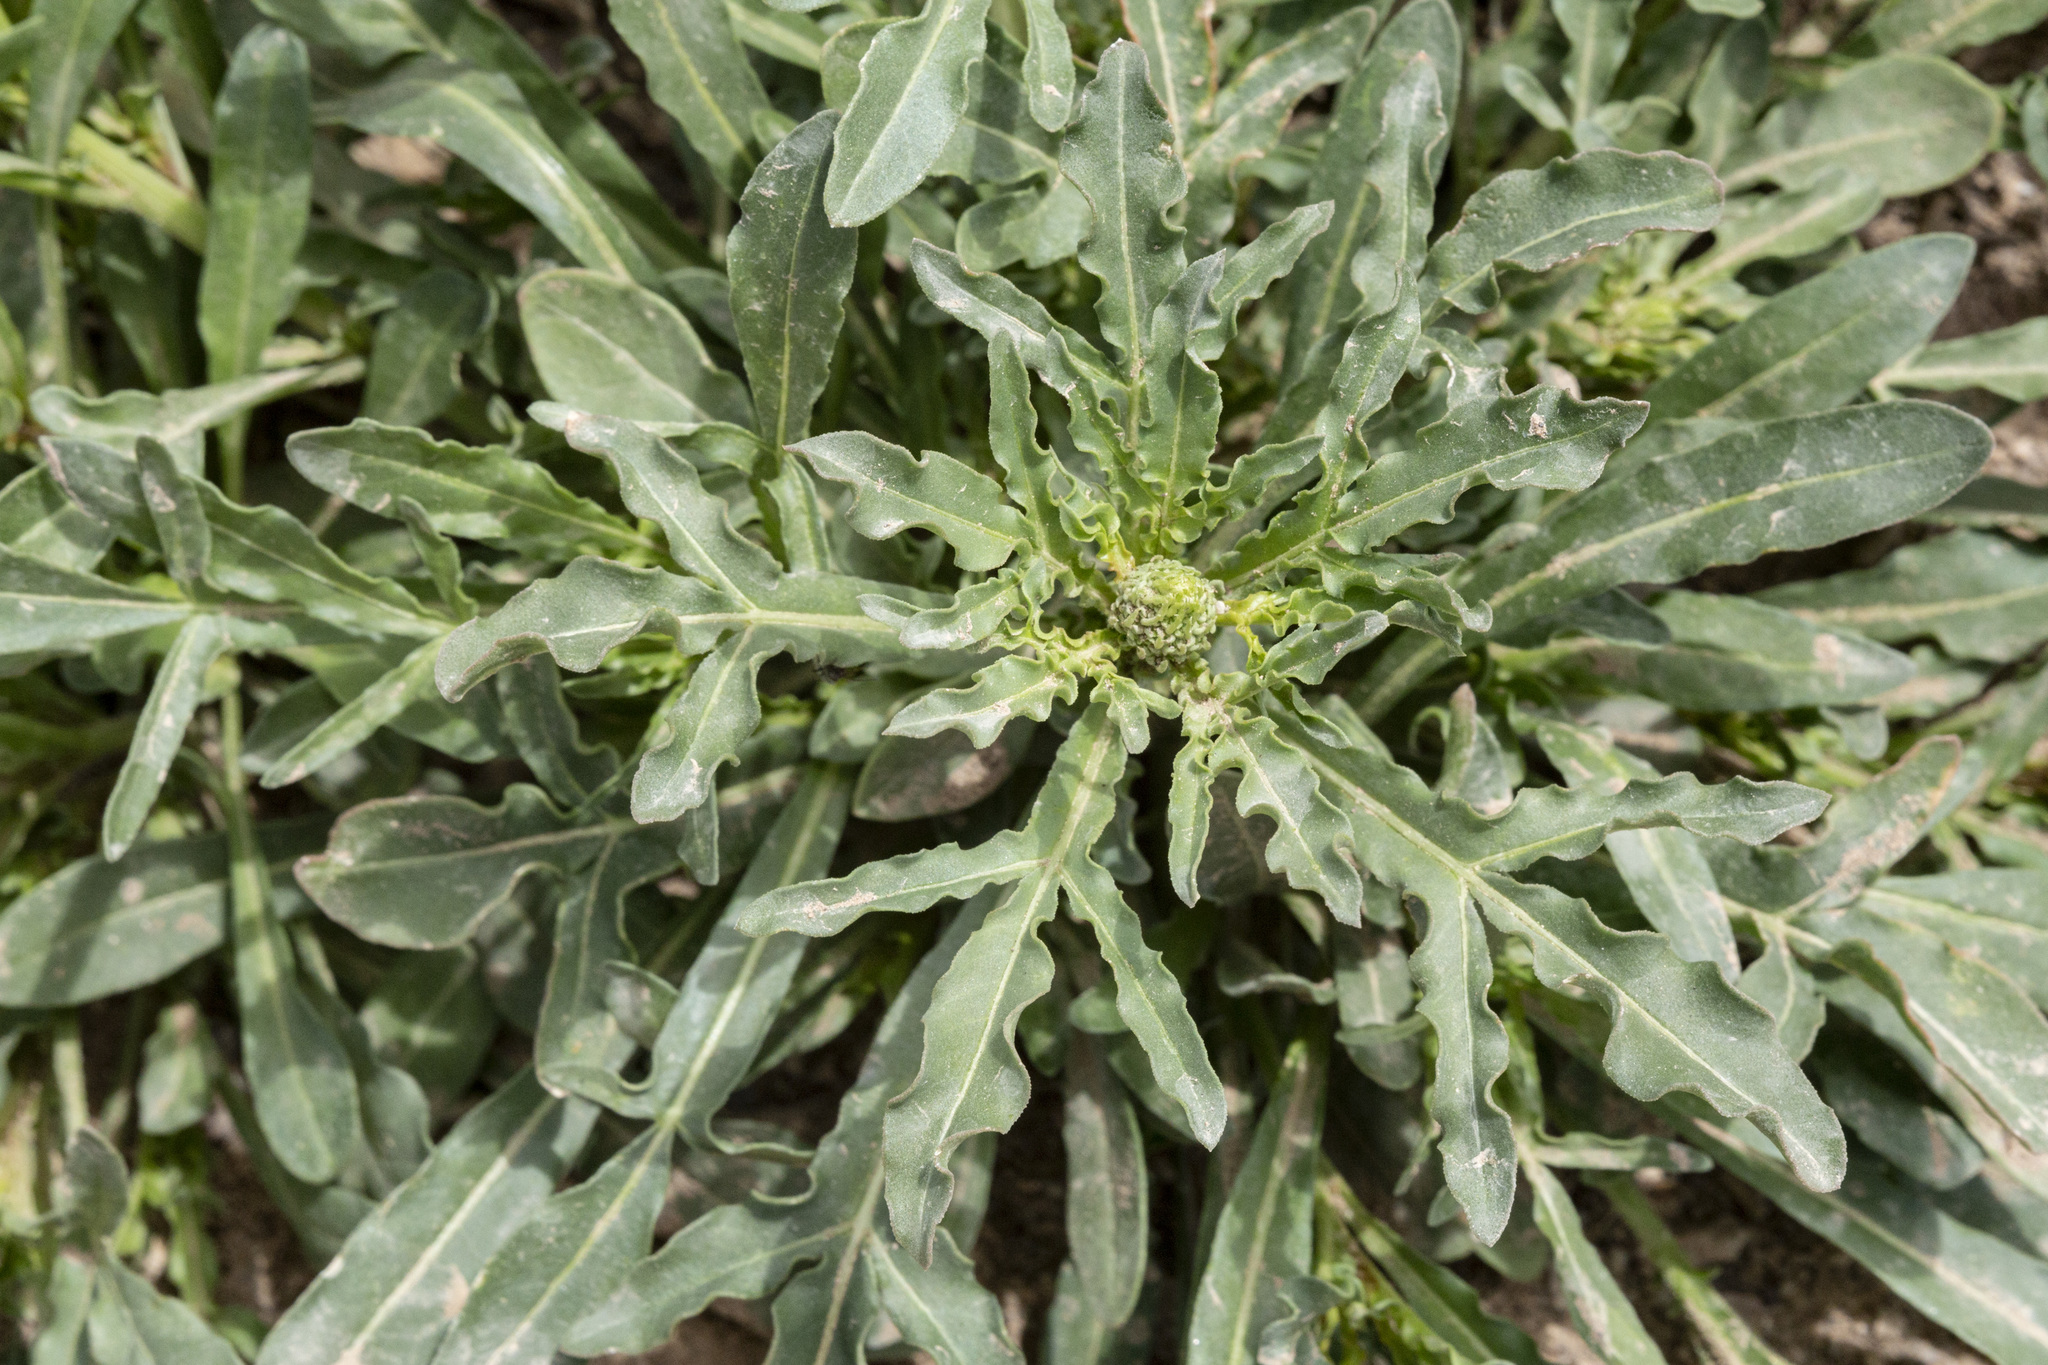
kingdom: Plantae
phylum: Tracheophyta
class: Magnoliopsida
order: Brassicales
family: Resedaceae
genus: Reseda
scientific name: Reseda lutea
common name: Wild mignonette
